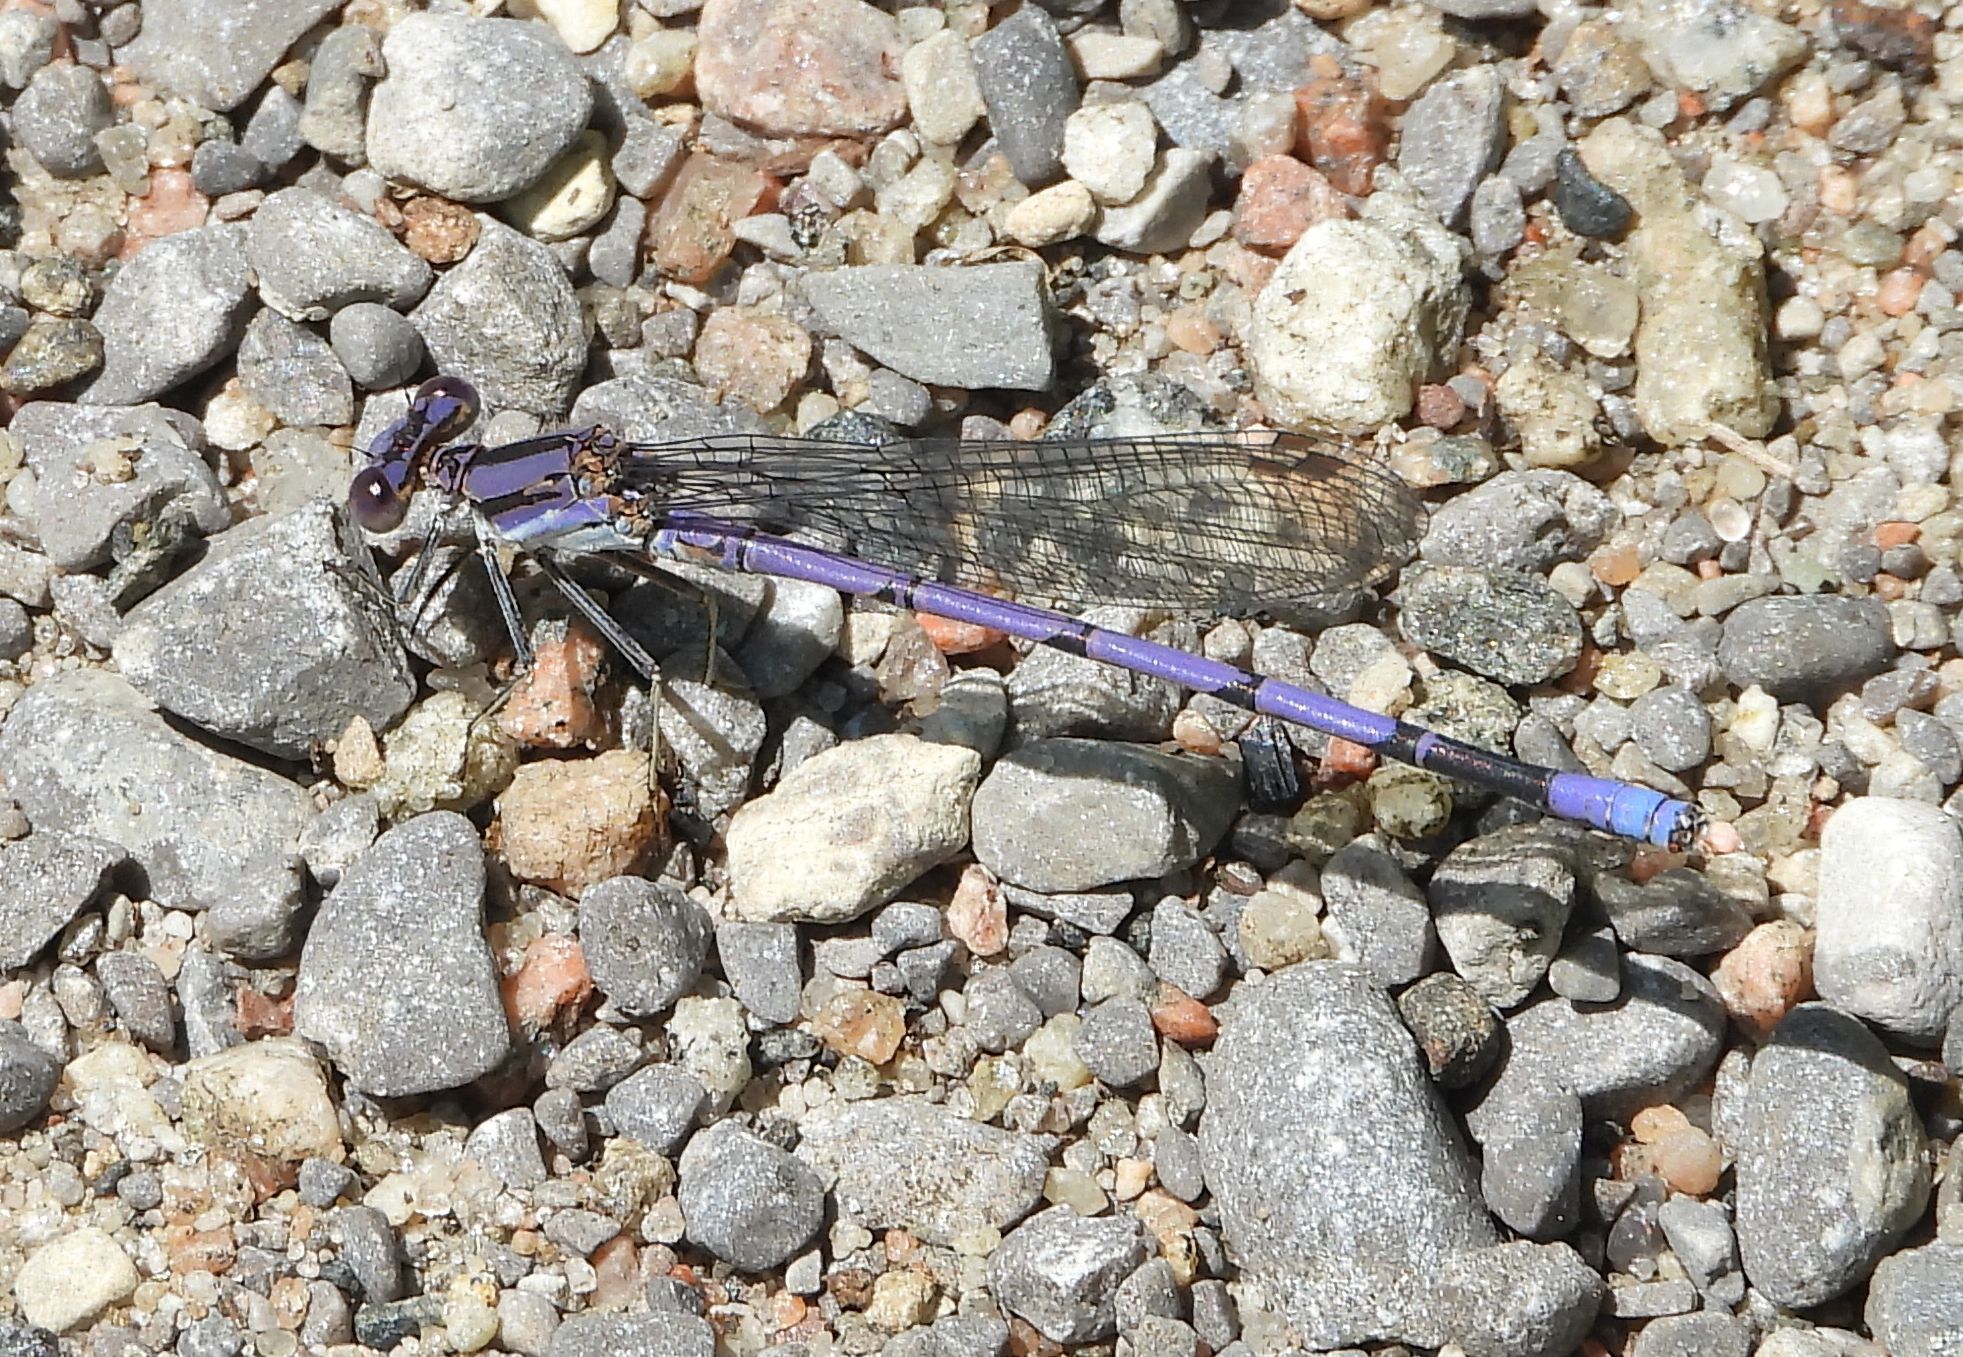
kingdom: Animalia
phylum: Arthropoda
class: Insecta
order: Odonata
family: Coenagrionidae
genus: Argia
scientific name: Argia fumipennis
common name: Variable dancer
